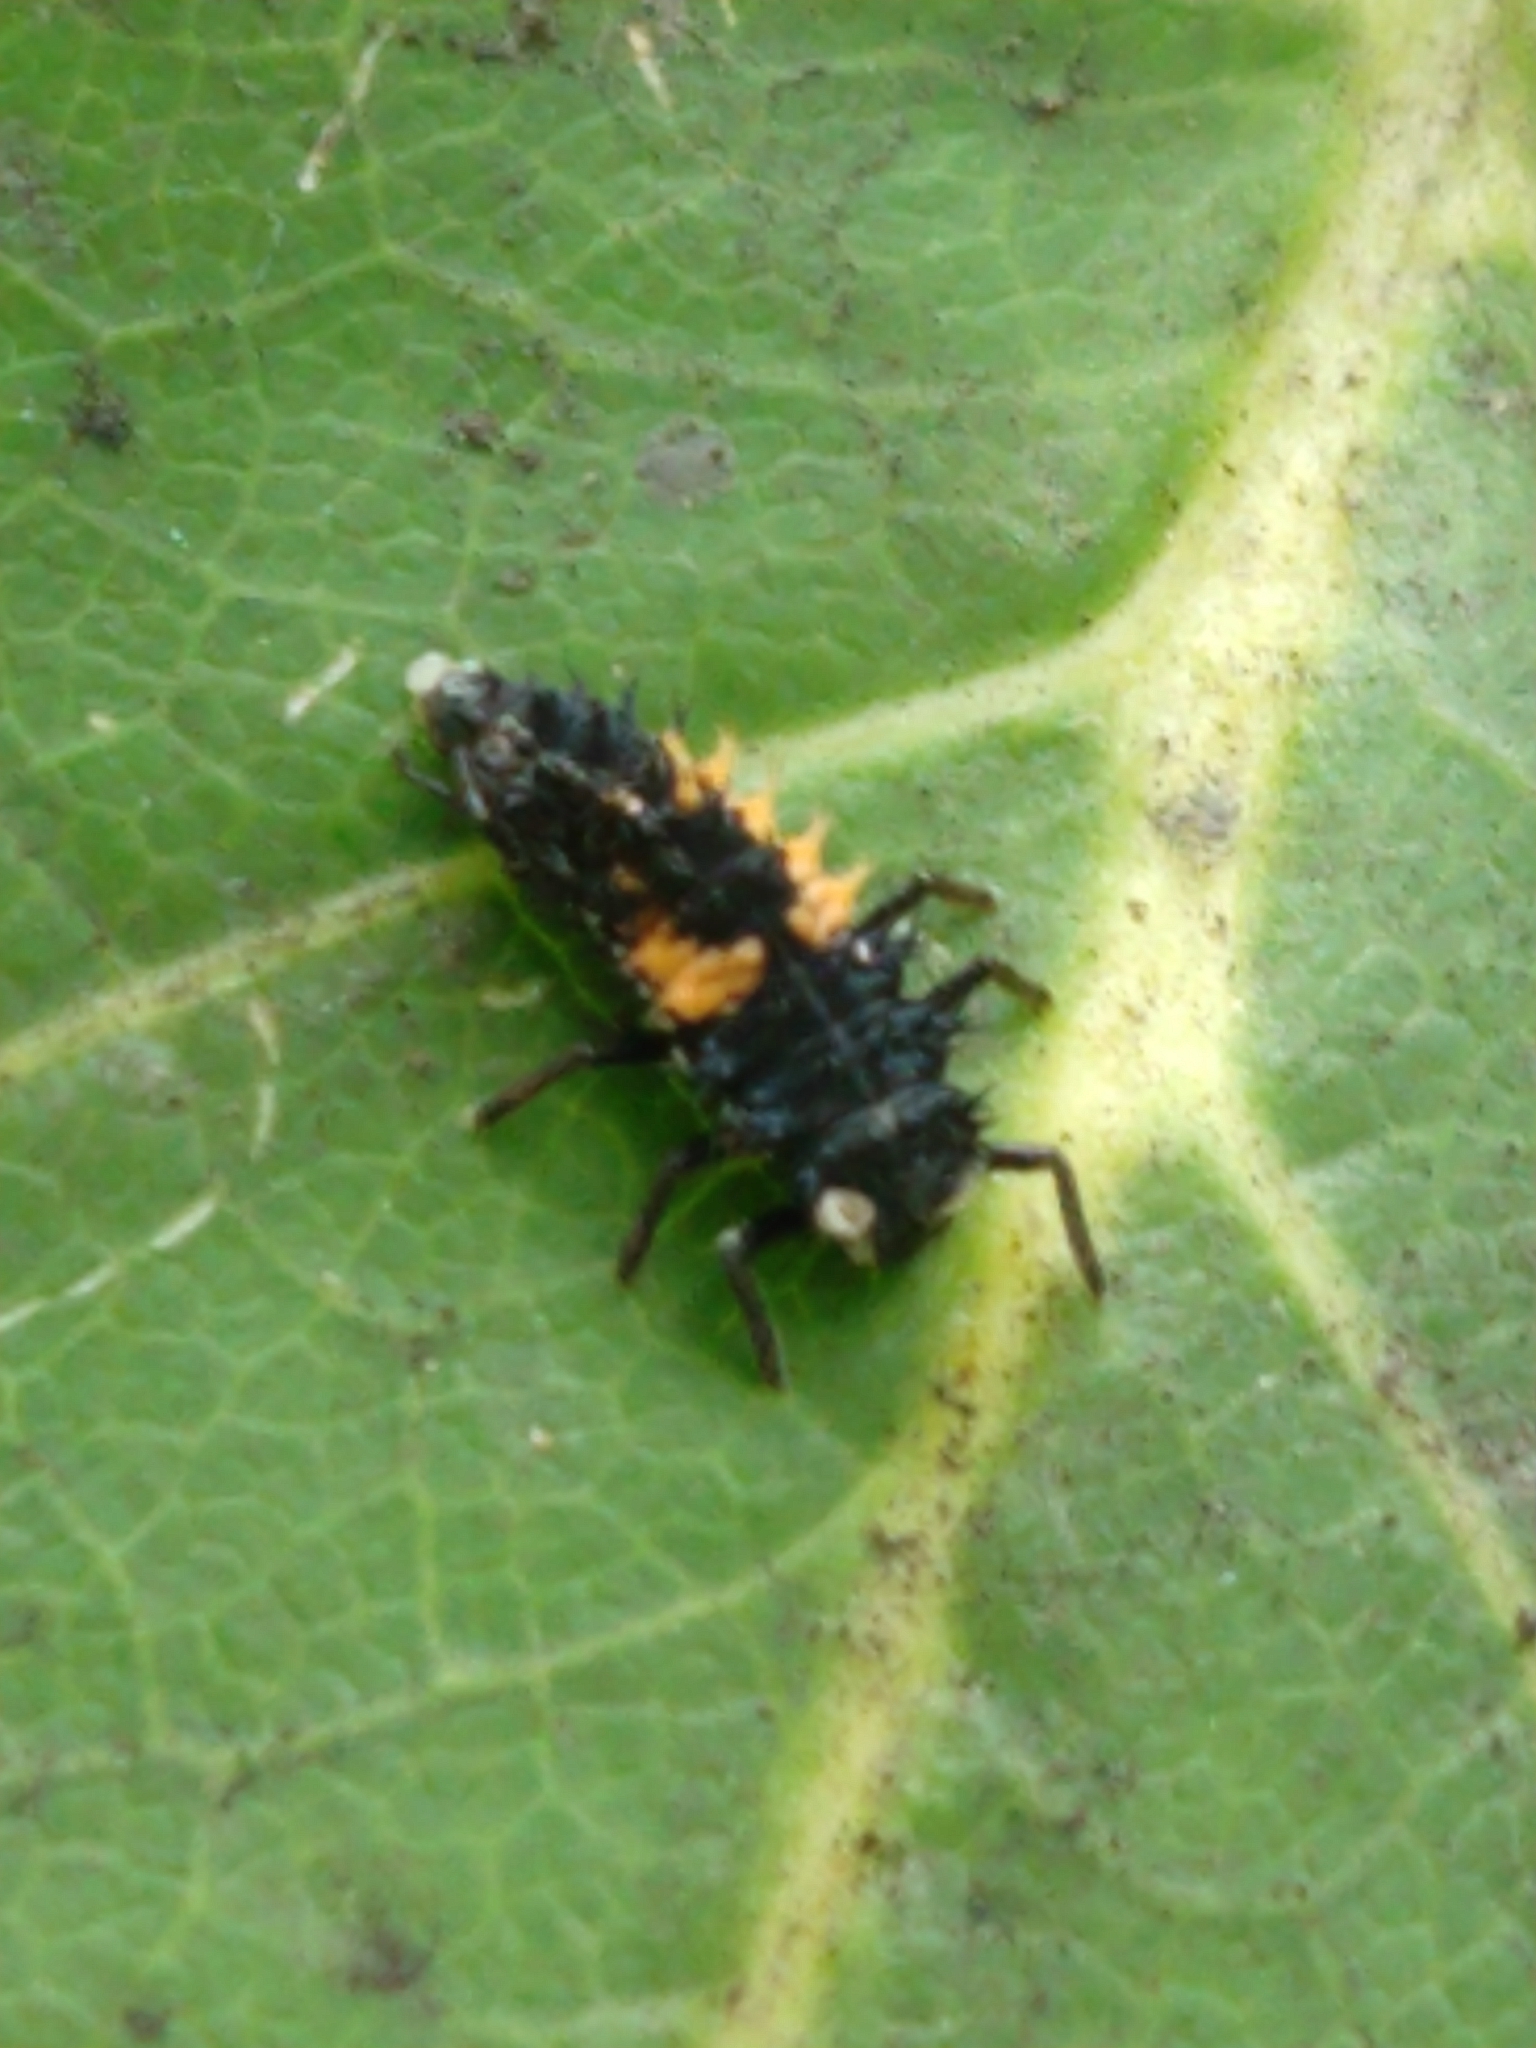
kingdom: Animalia
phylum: Arthropoda
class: Insecta
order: Coleoptera
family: Coccinellidae
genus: Harmonia
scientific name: Harmonia axyridis
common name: Harlequin ladybird
